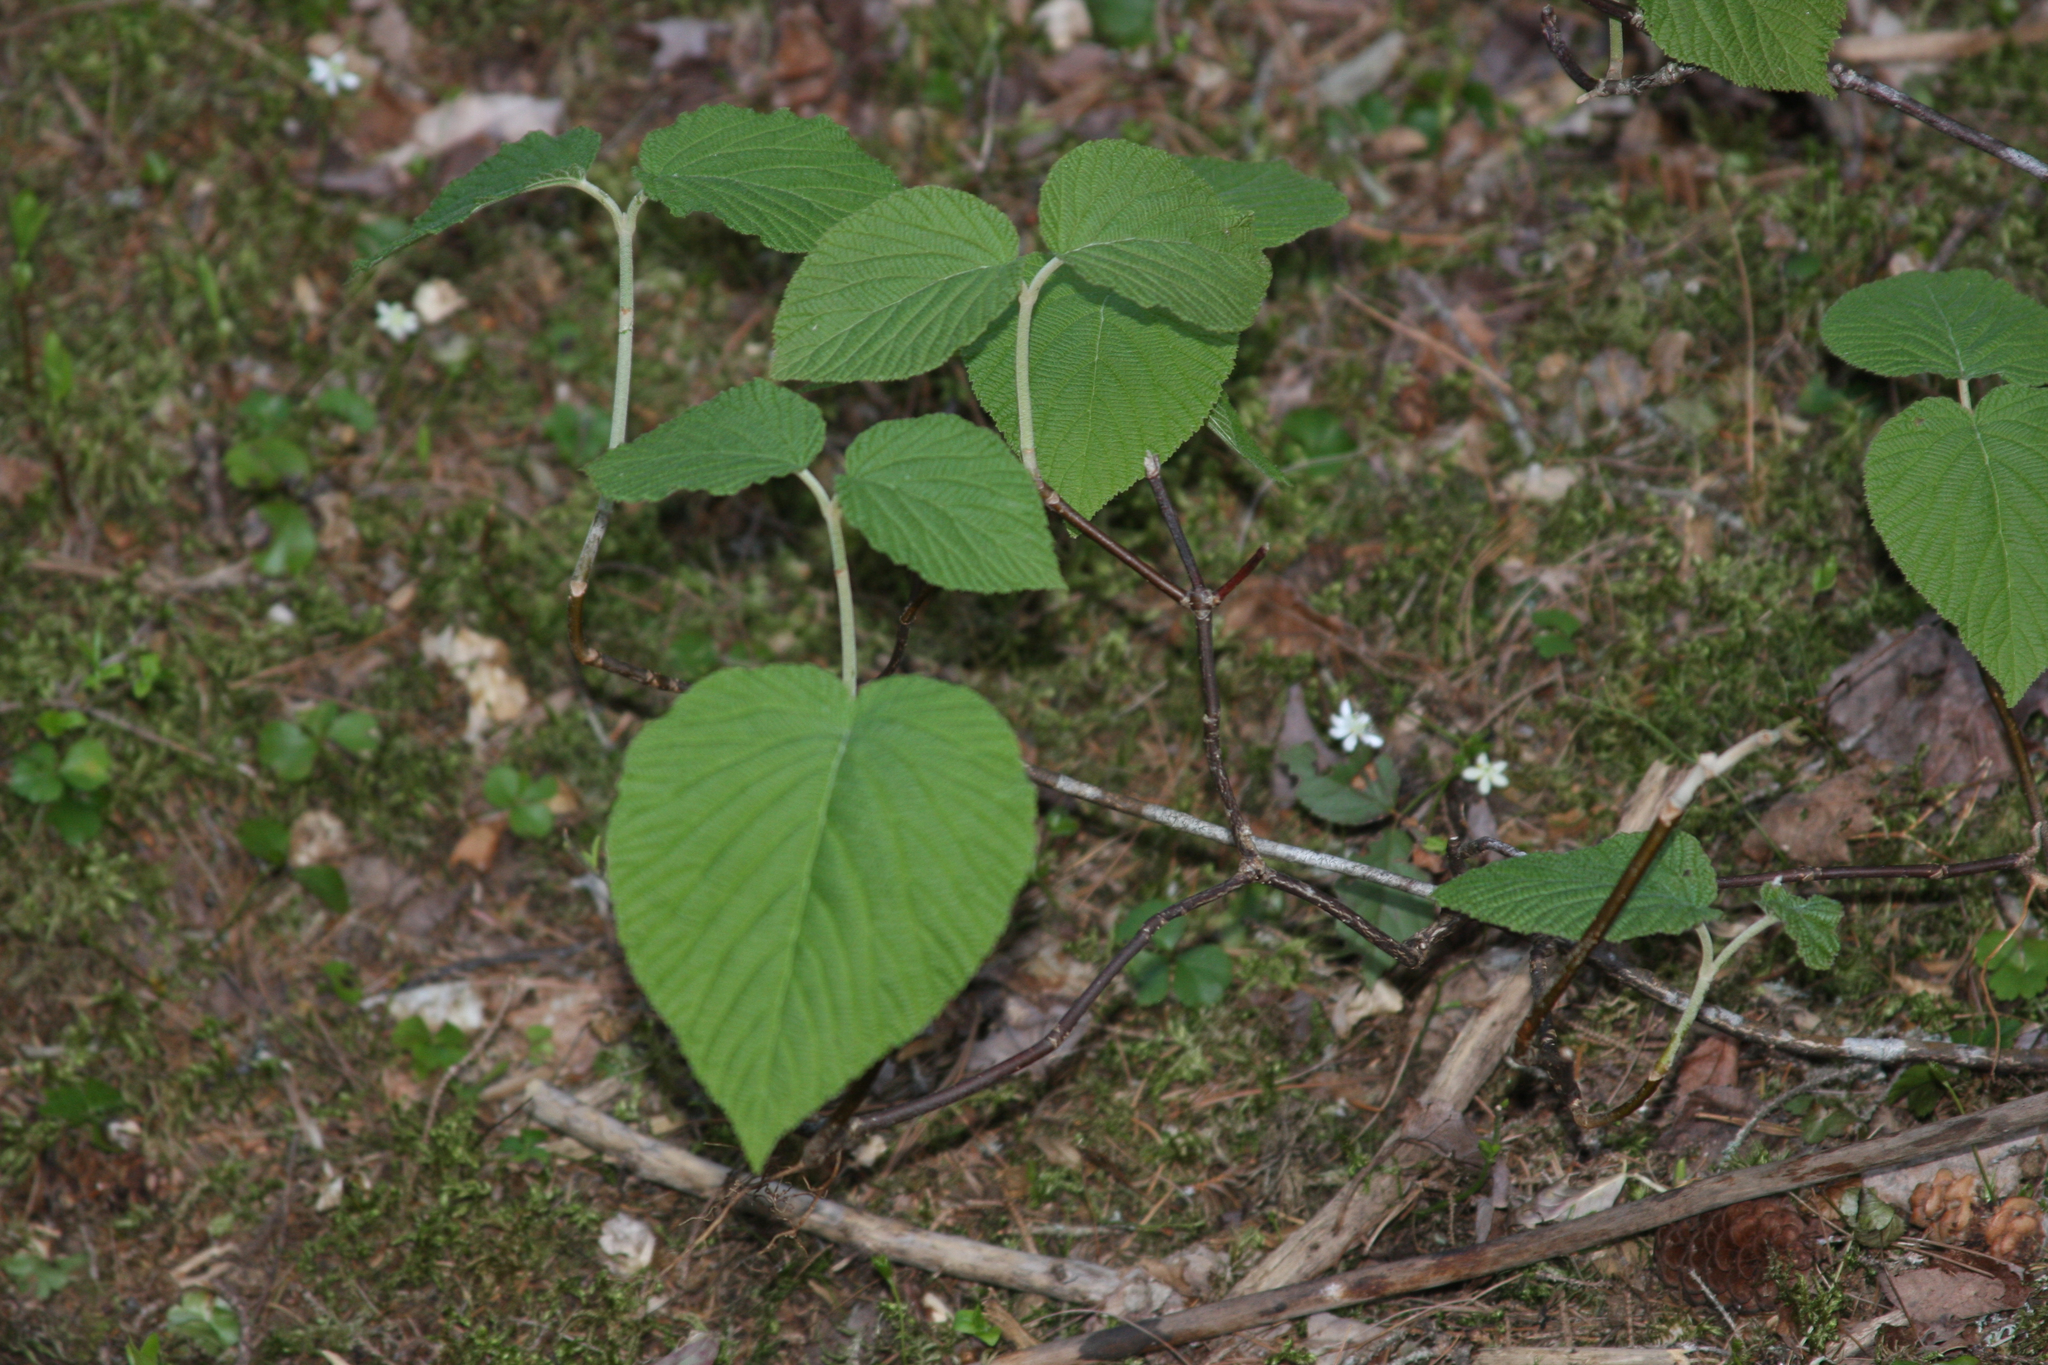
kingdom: Plantae
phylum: Tracheophyta
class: Magnoliopsida
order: Dipsacales
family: Viburnaceae
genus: Viburnum
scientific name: Viburnum lantanoides
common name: Hobblebush
